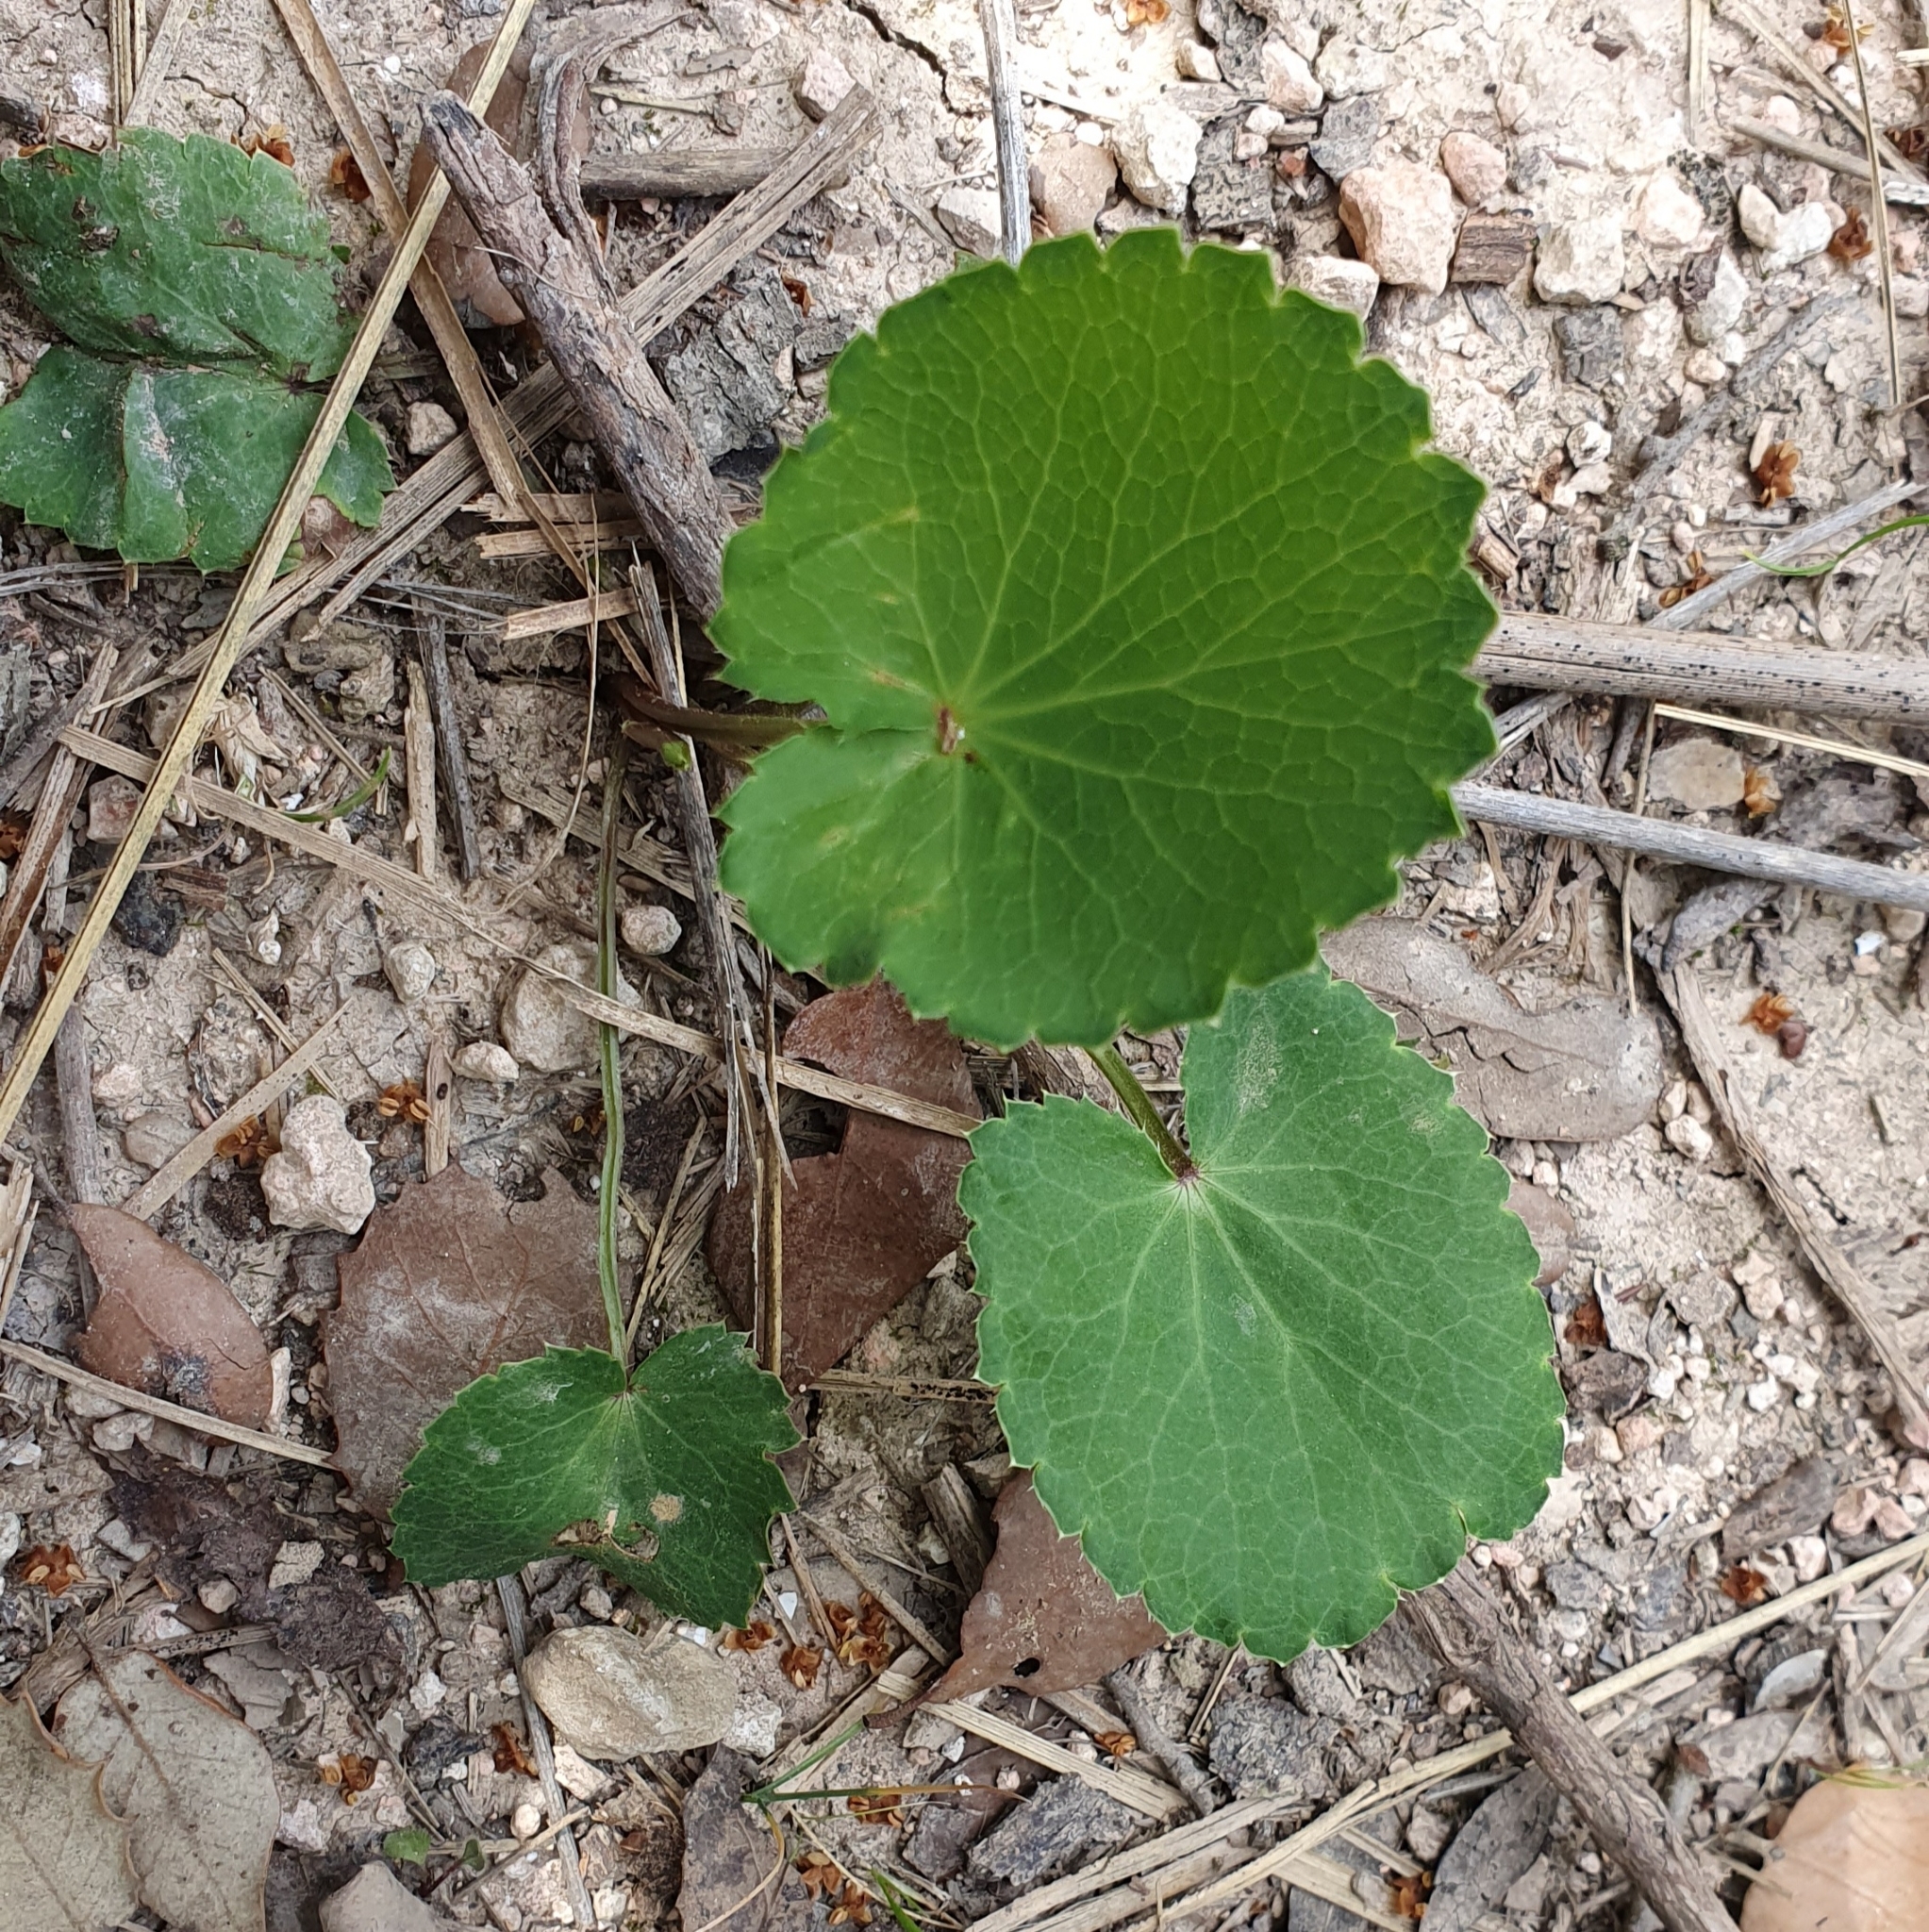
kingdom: Plantae
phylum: Tracheophyta
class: Magnoliopsida
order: Apiales
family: Apiaceae
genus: Eryngium
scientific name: Eryngium tricuspidatum
